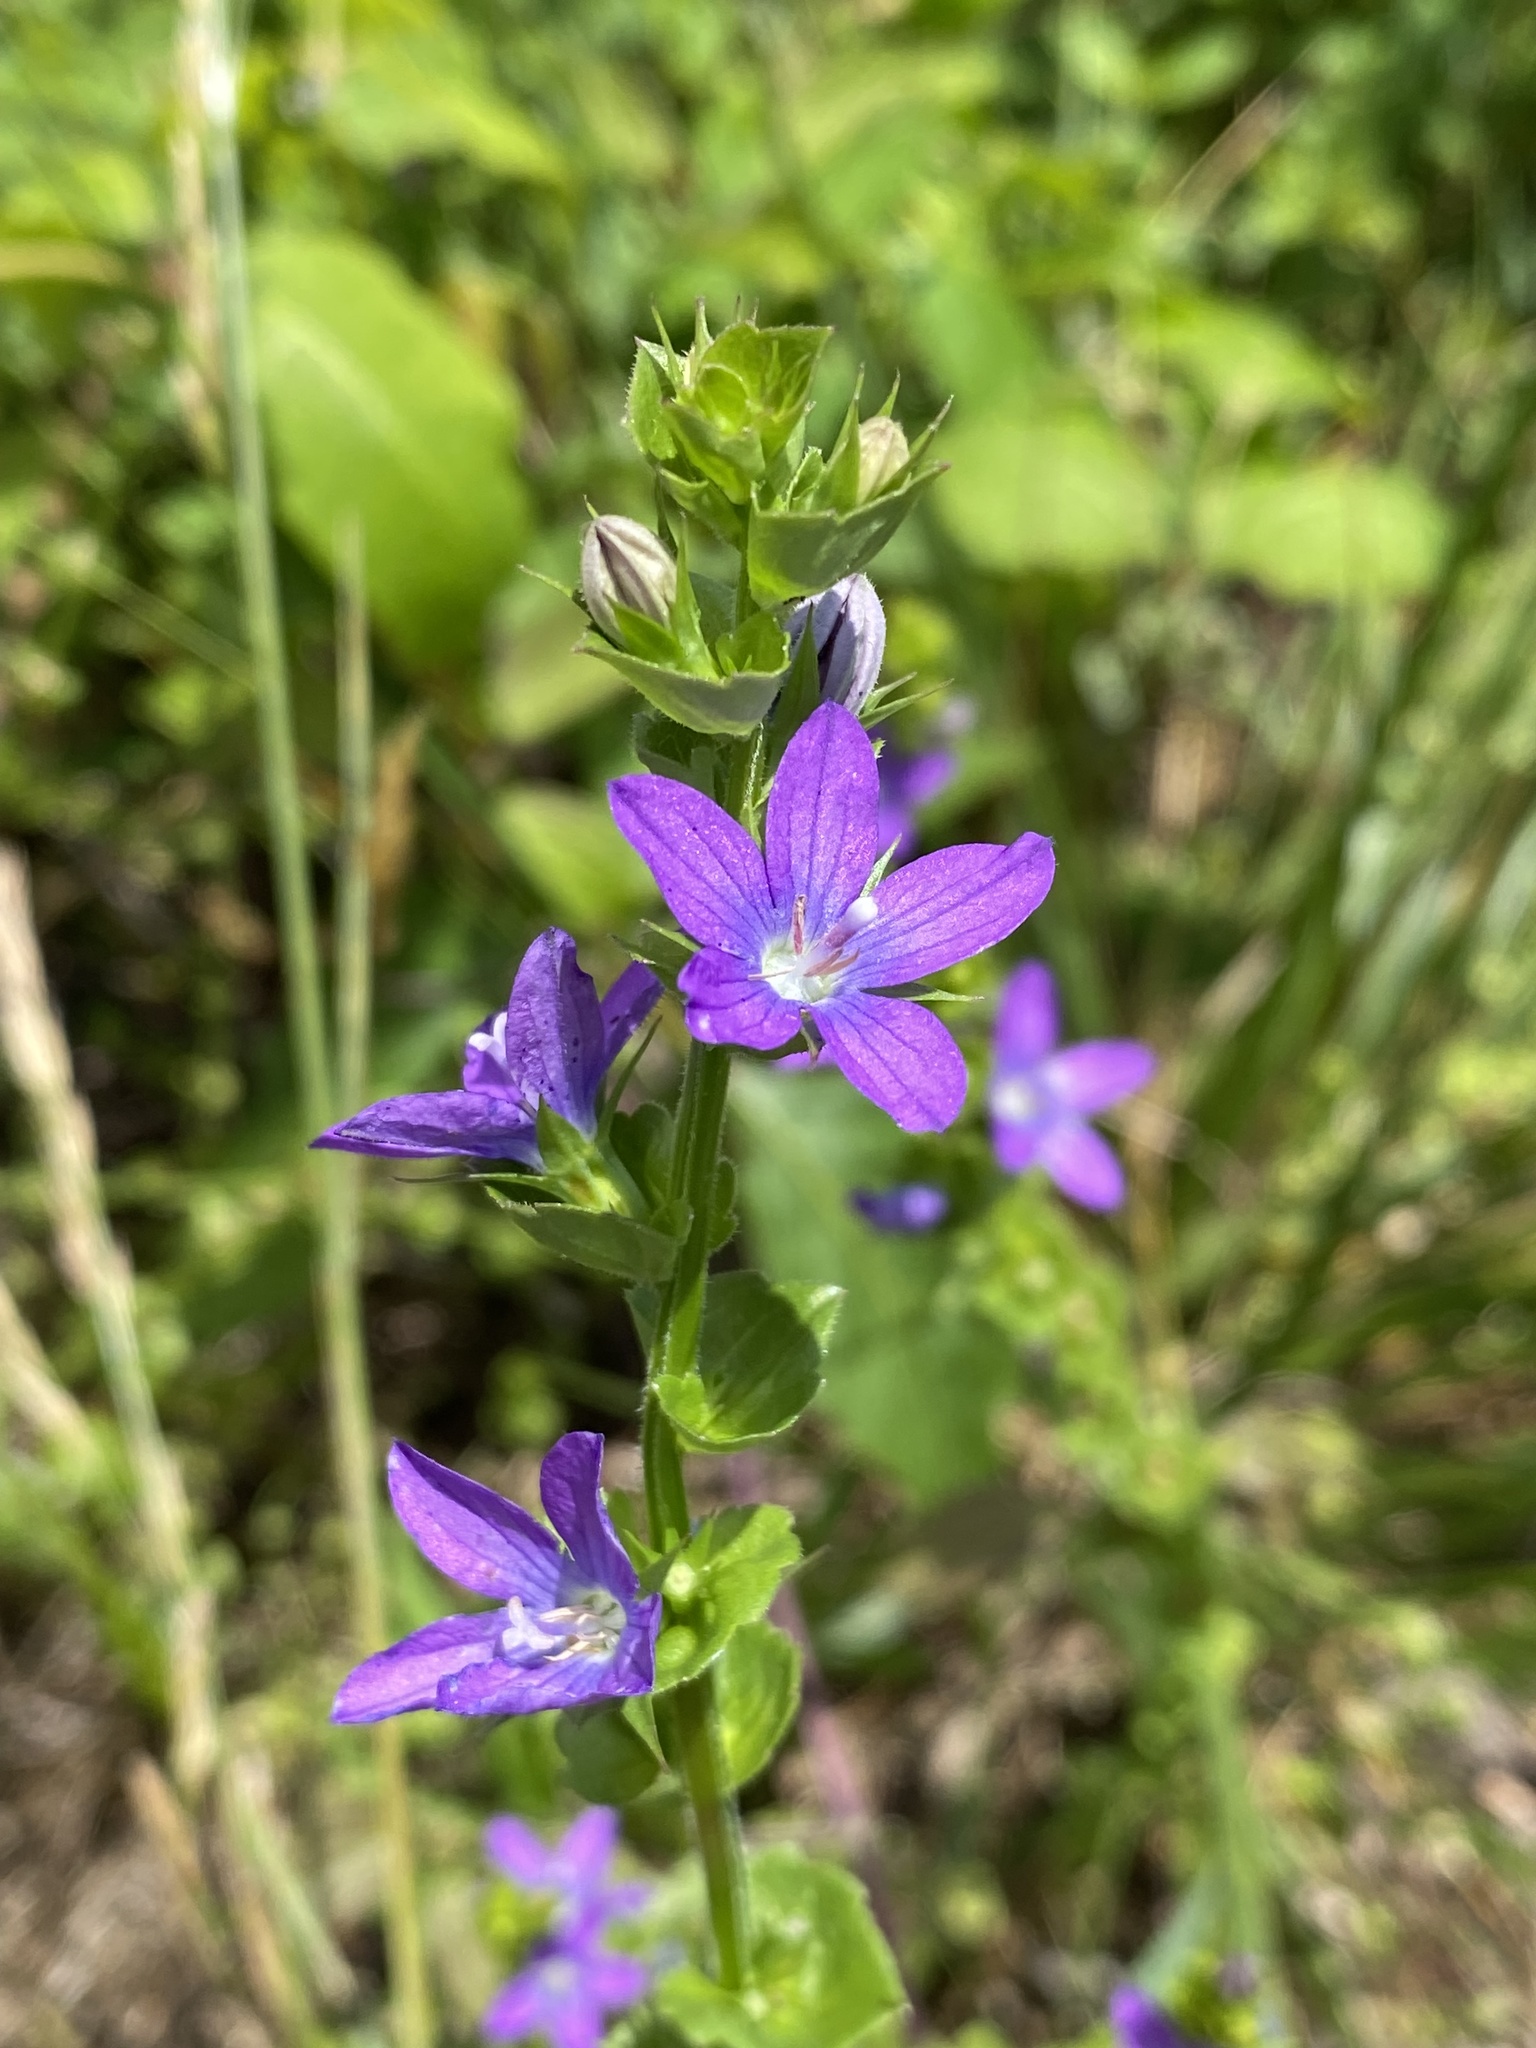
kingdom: Plantae
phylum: Tracheophyta
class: Magnoliopsida
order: Asterales
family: Campanulaceae
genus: Triodanis
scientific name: Triodanis perfoliata
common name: Clasping venus' looking-glass
